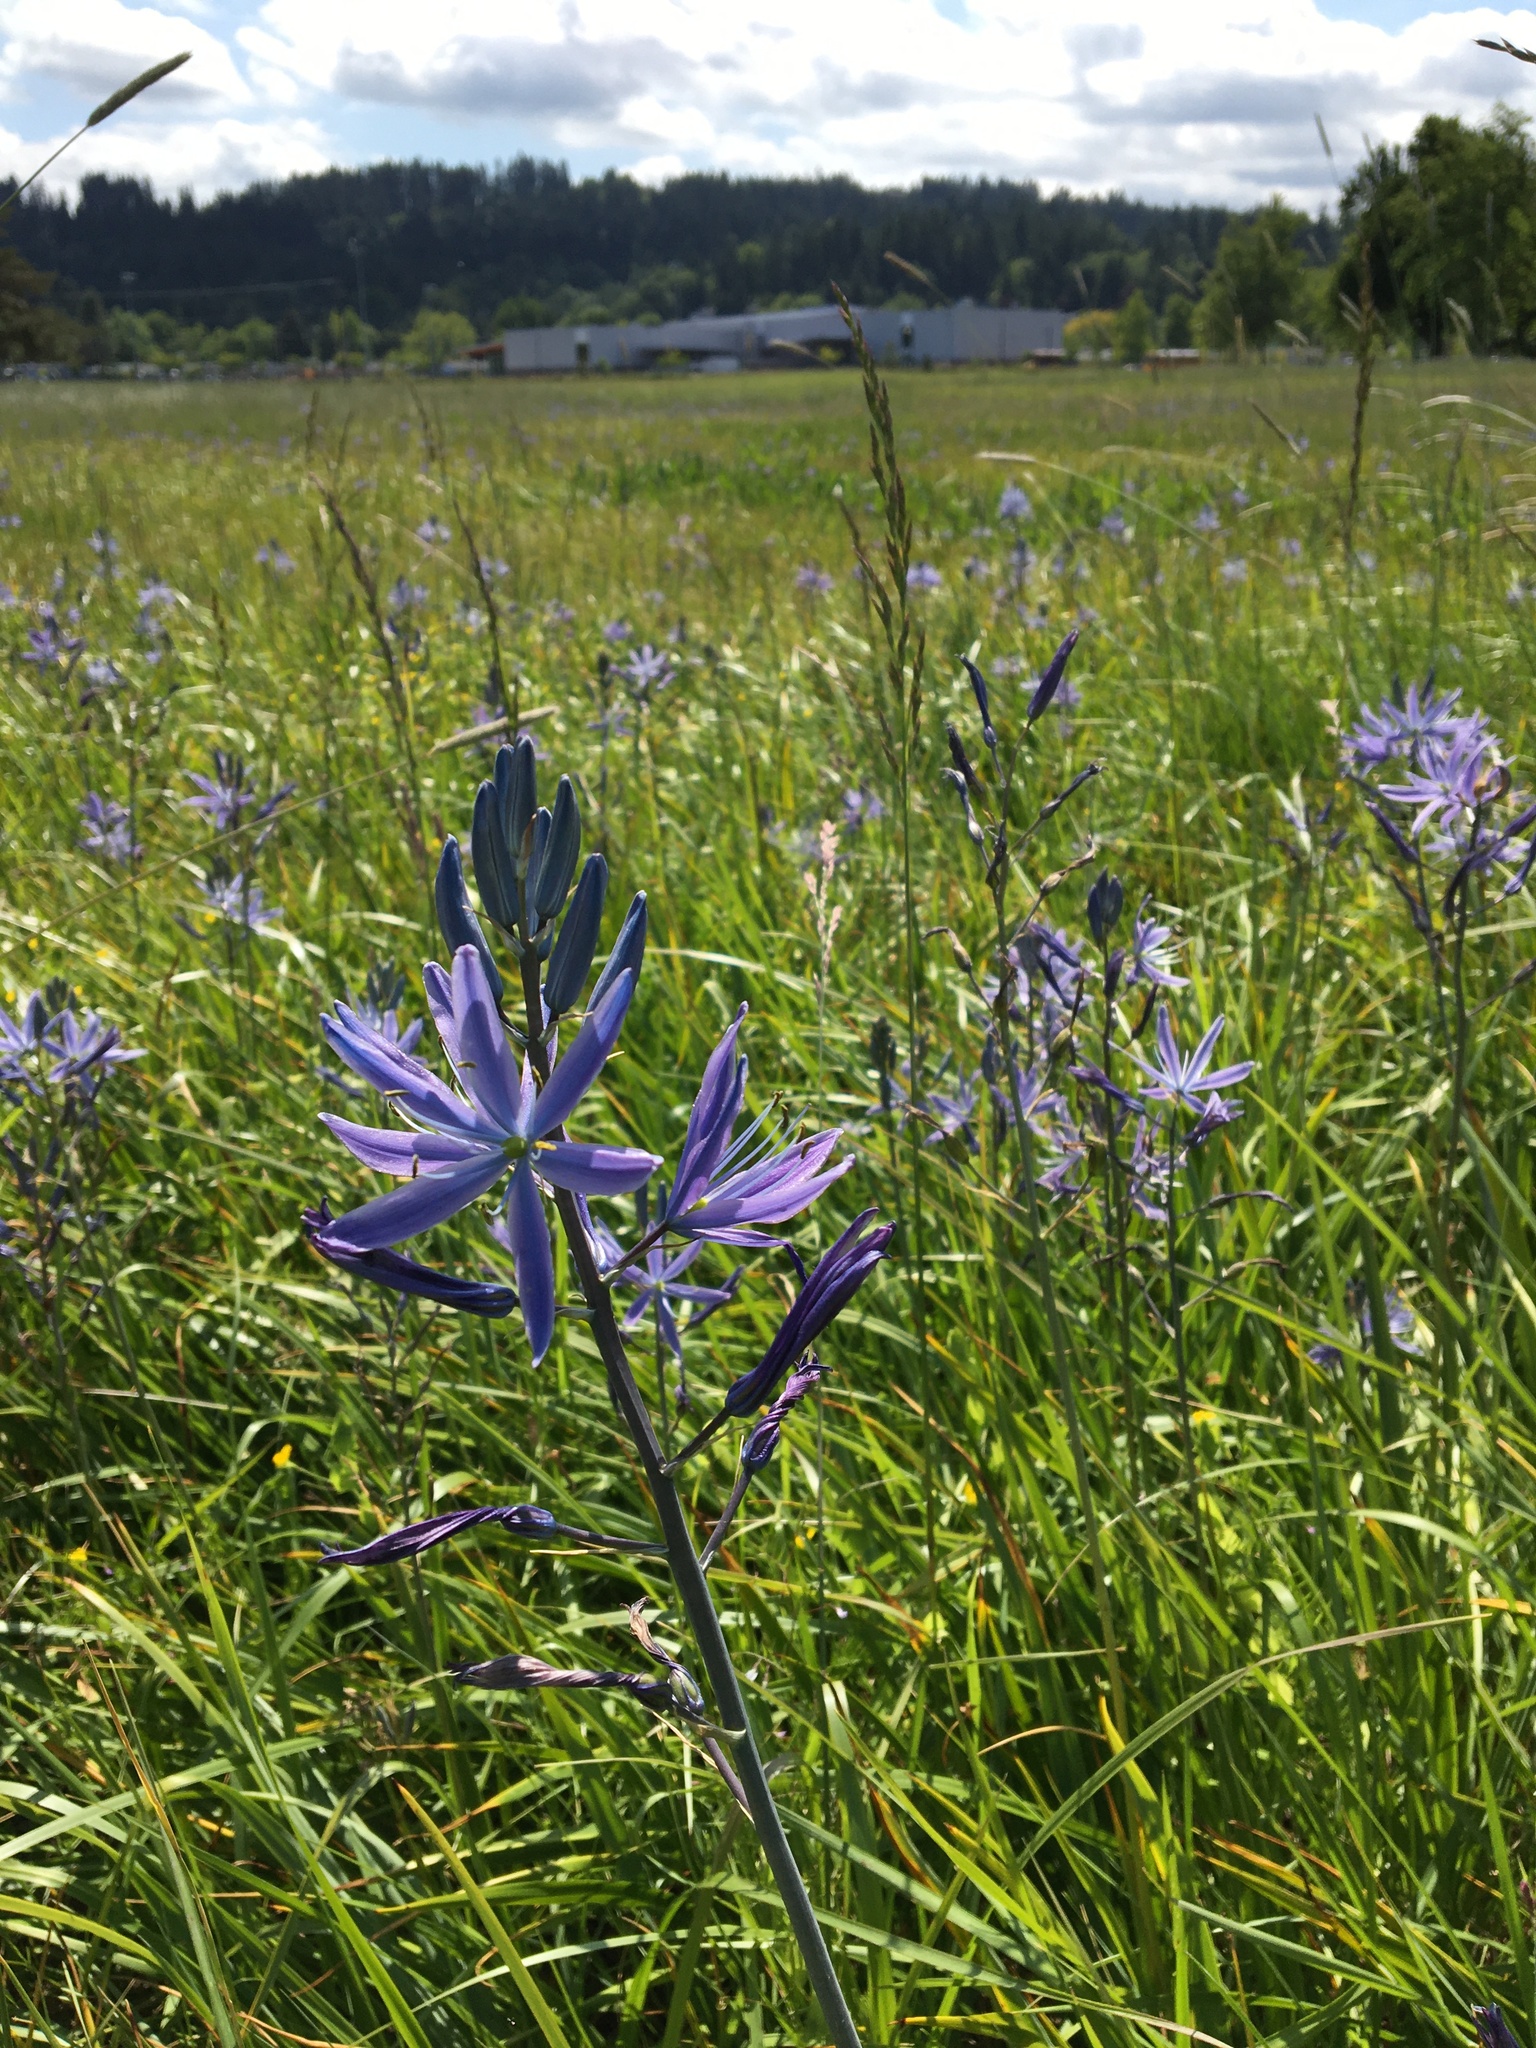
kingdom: Plantae
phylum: Tracheophyta
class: Liliopsida
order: Asparagales
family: Asparagaceae
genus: Camassia
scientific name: Camassia leichtlinii
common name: Leichtlin's camas
